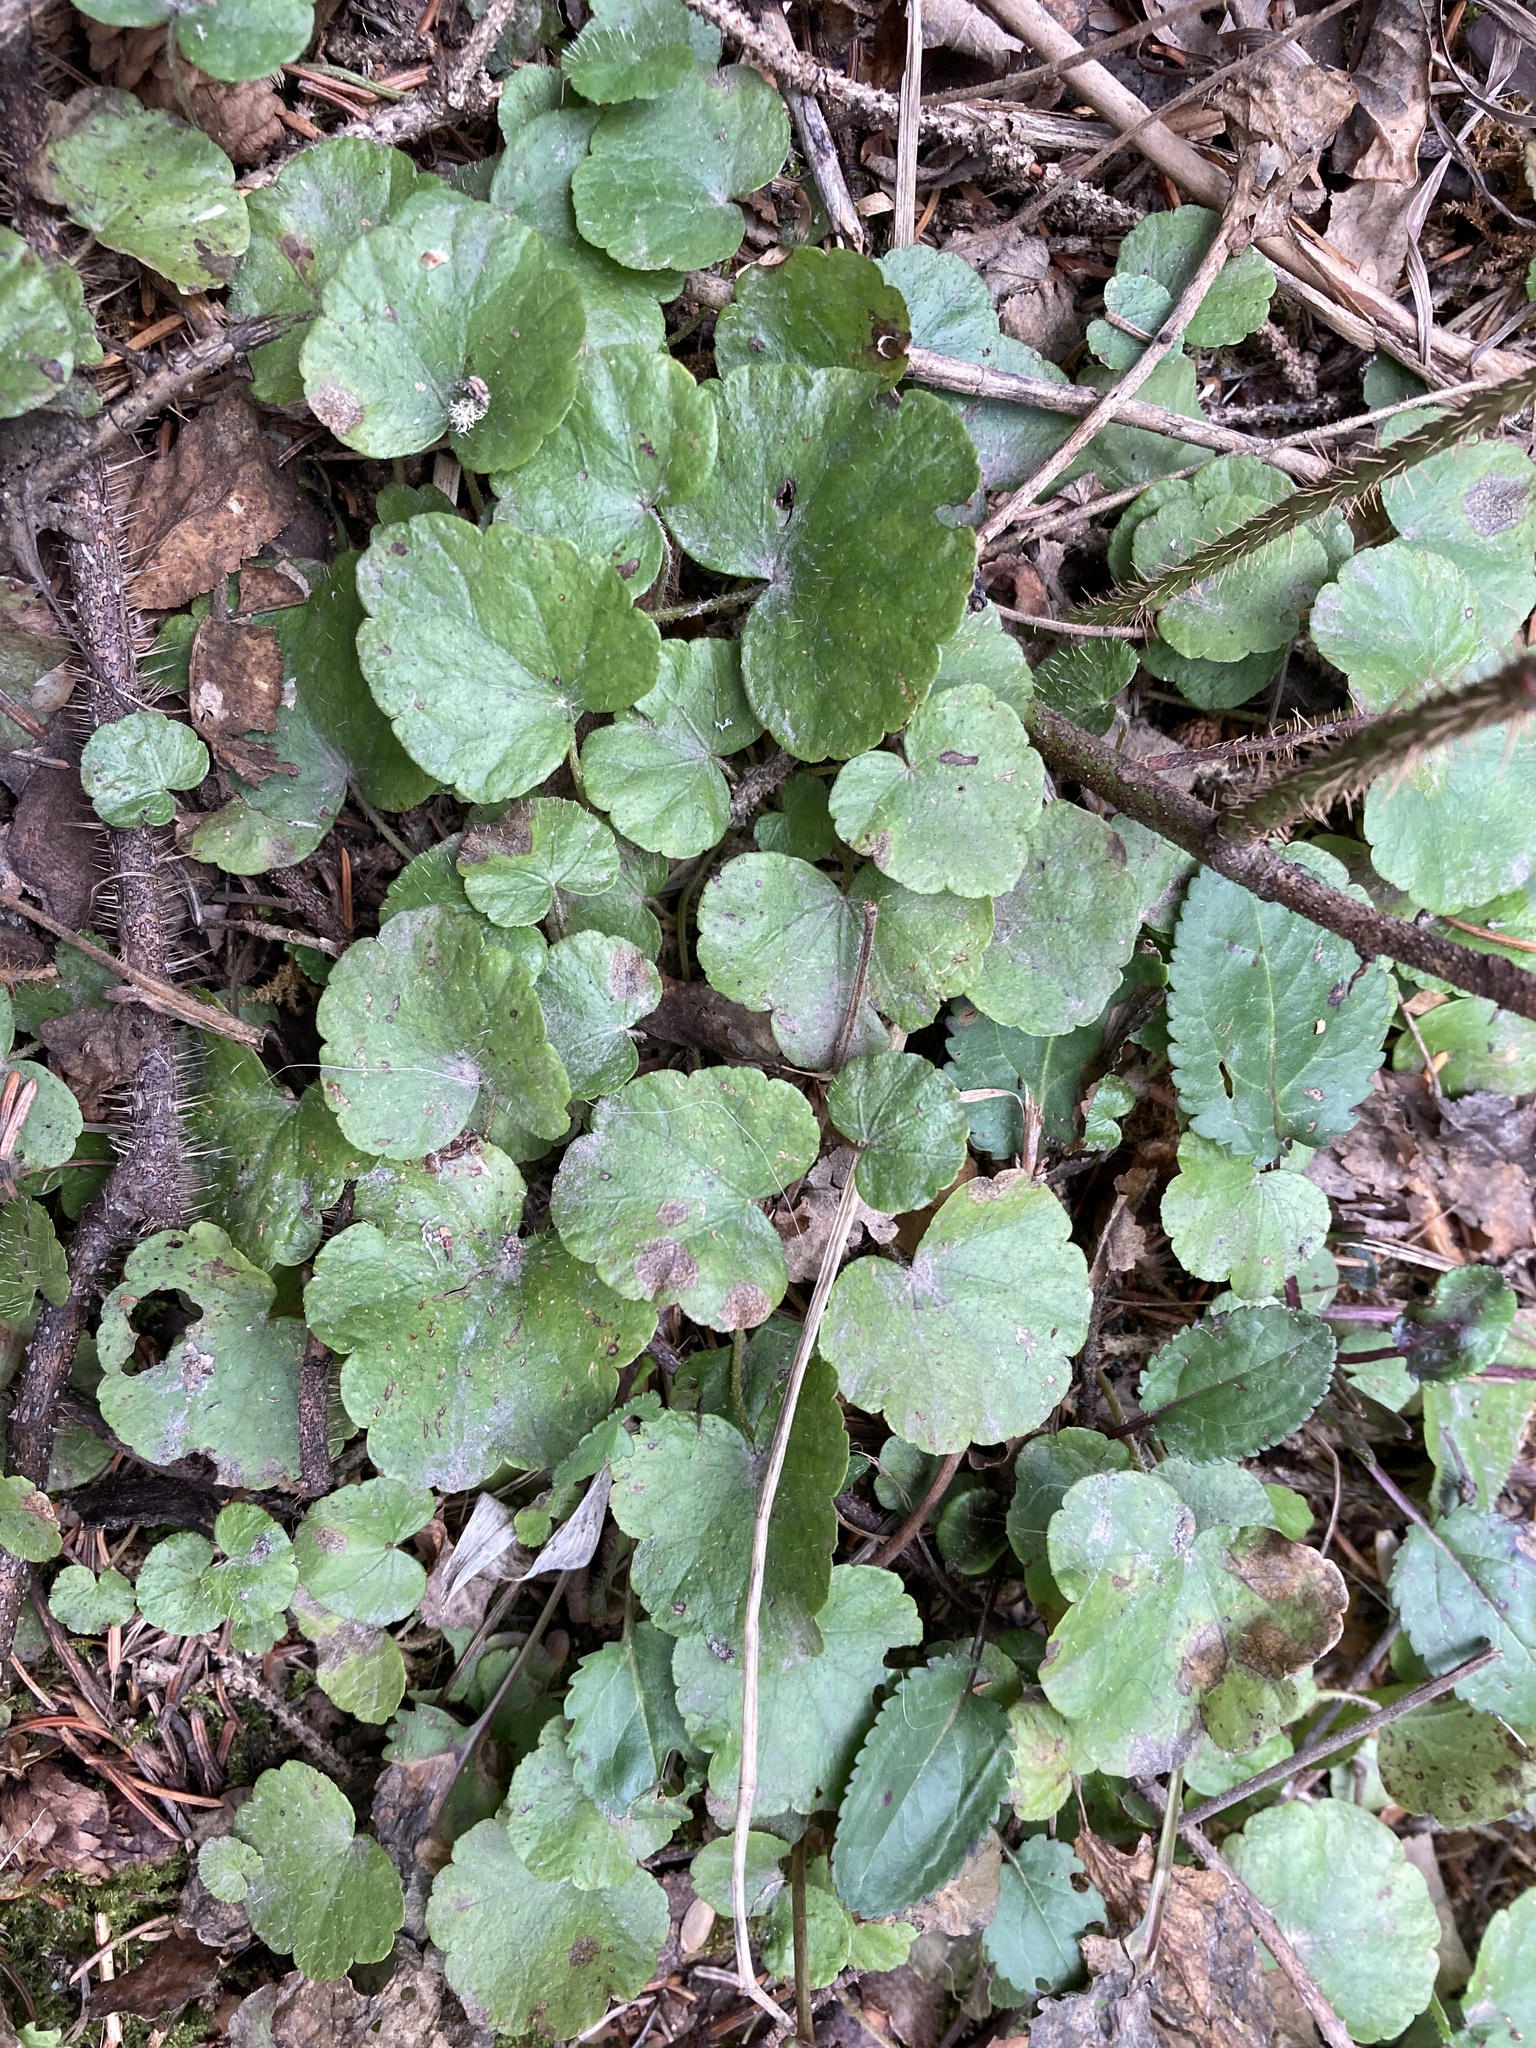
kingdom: Plantae
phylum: Tracheophyta
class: Magnoliopsida
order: Saxifragales
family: Saxifragaceae
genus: Mitella
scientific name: Mitella nuda
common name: Bare-stemmed bishop's-cap
